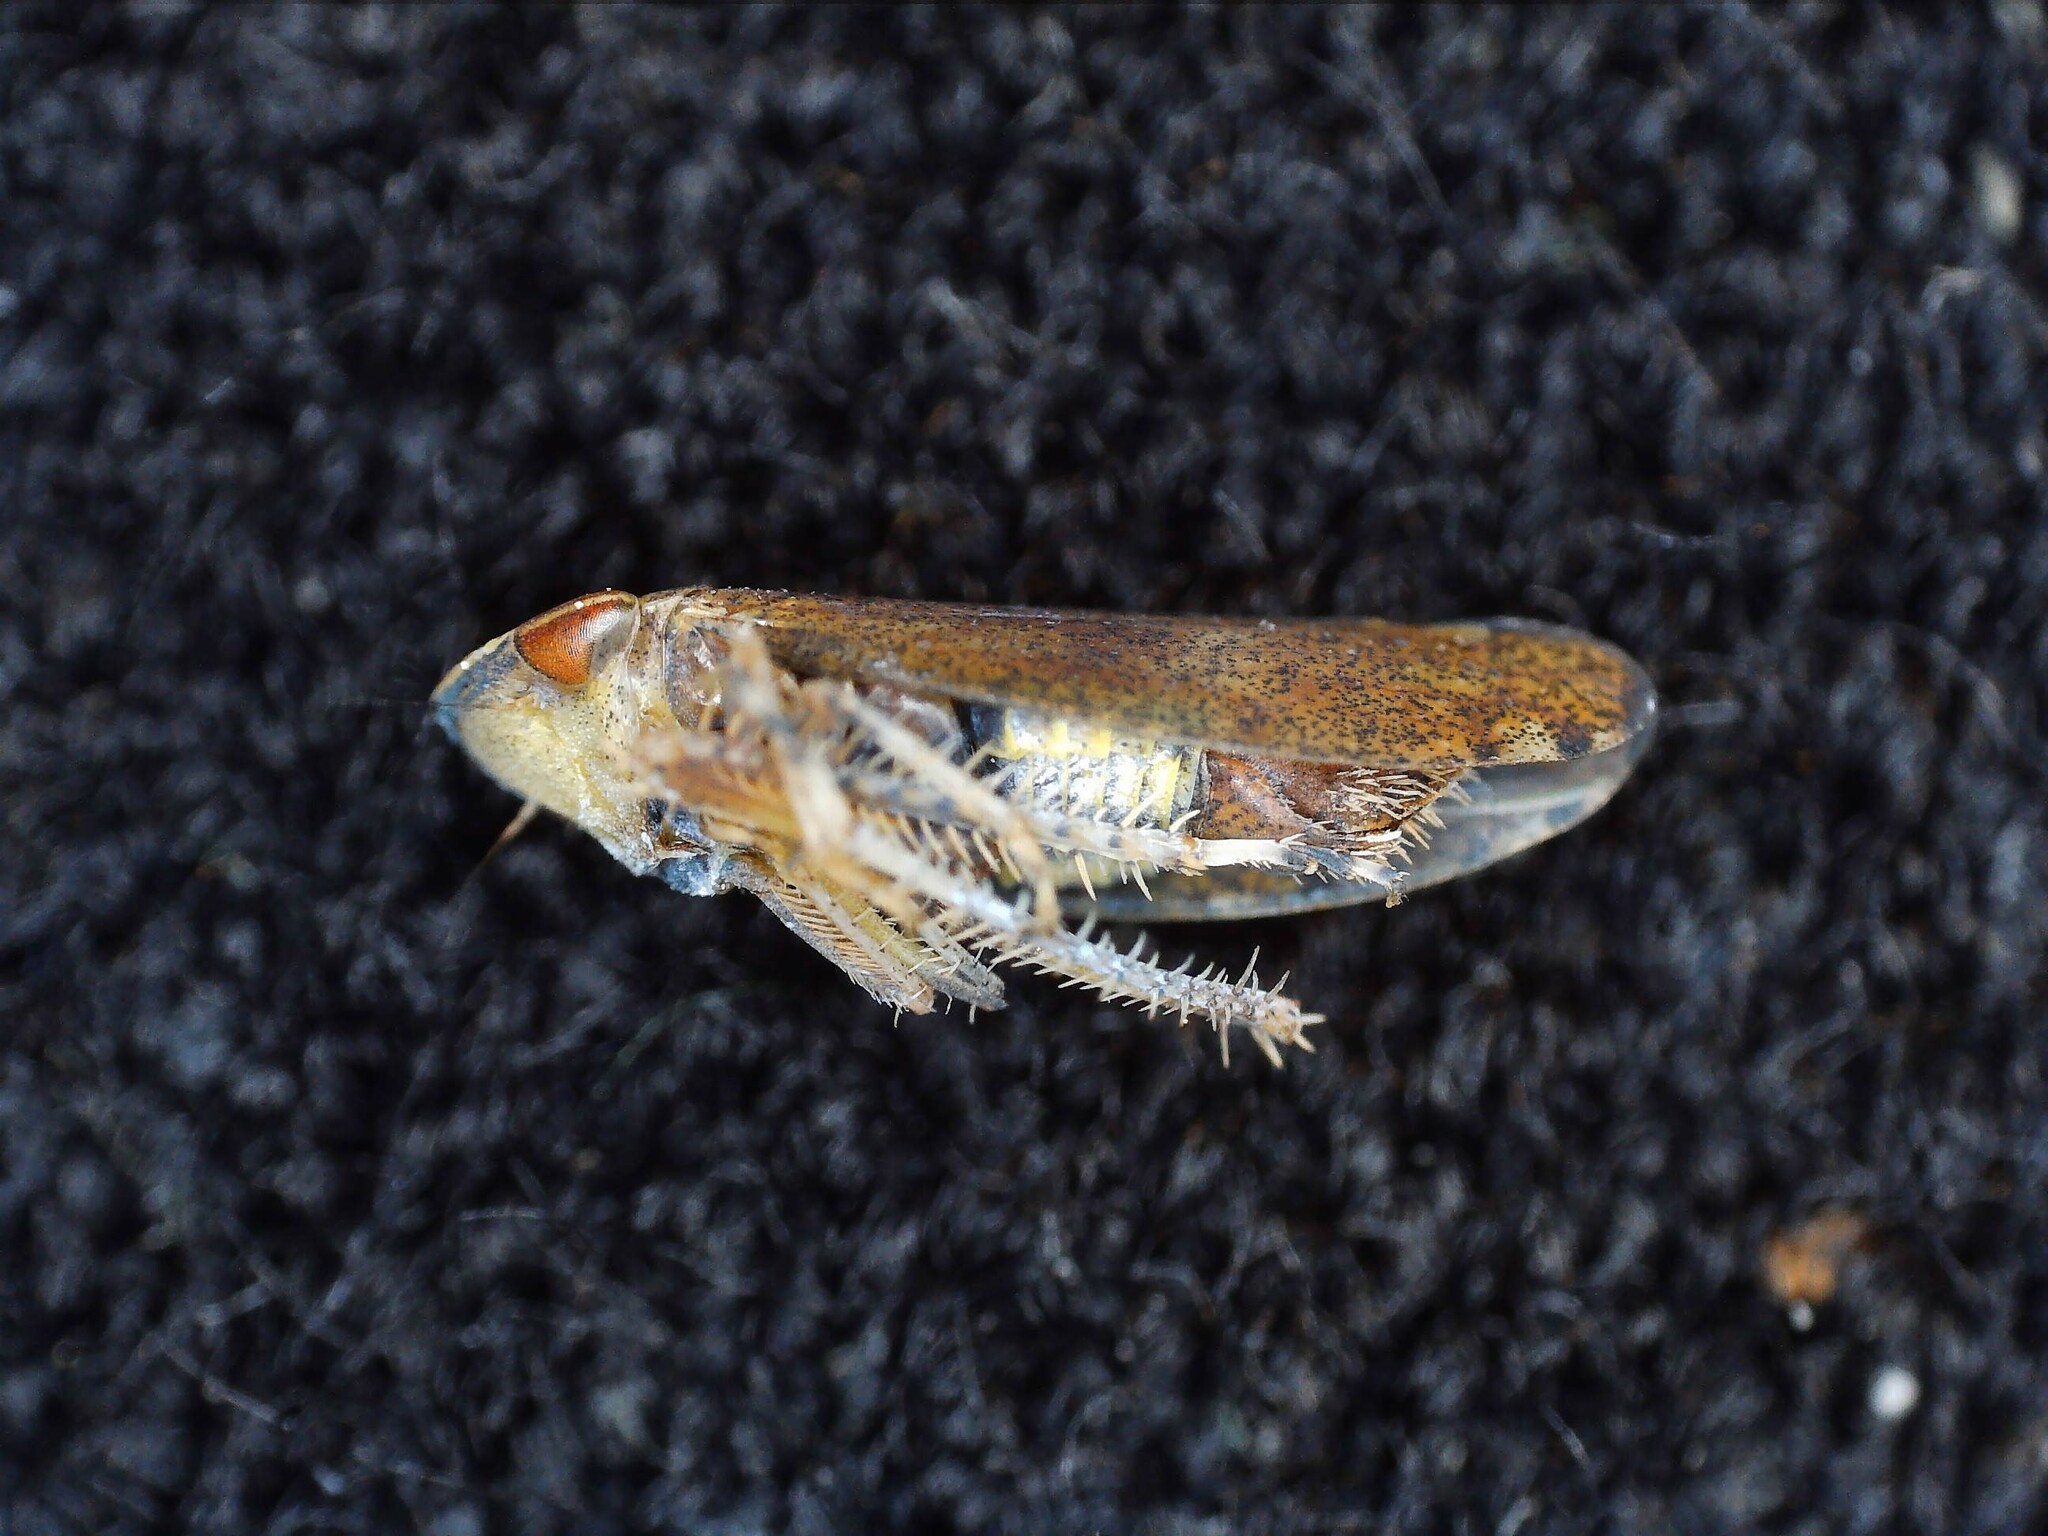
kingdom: Animalia
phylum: Arthropoda
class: Insecta
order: Hemiptera
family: Cicadellidae
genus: Fieberiella
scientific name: Fieberiella septentrionalis
